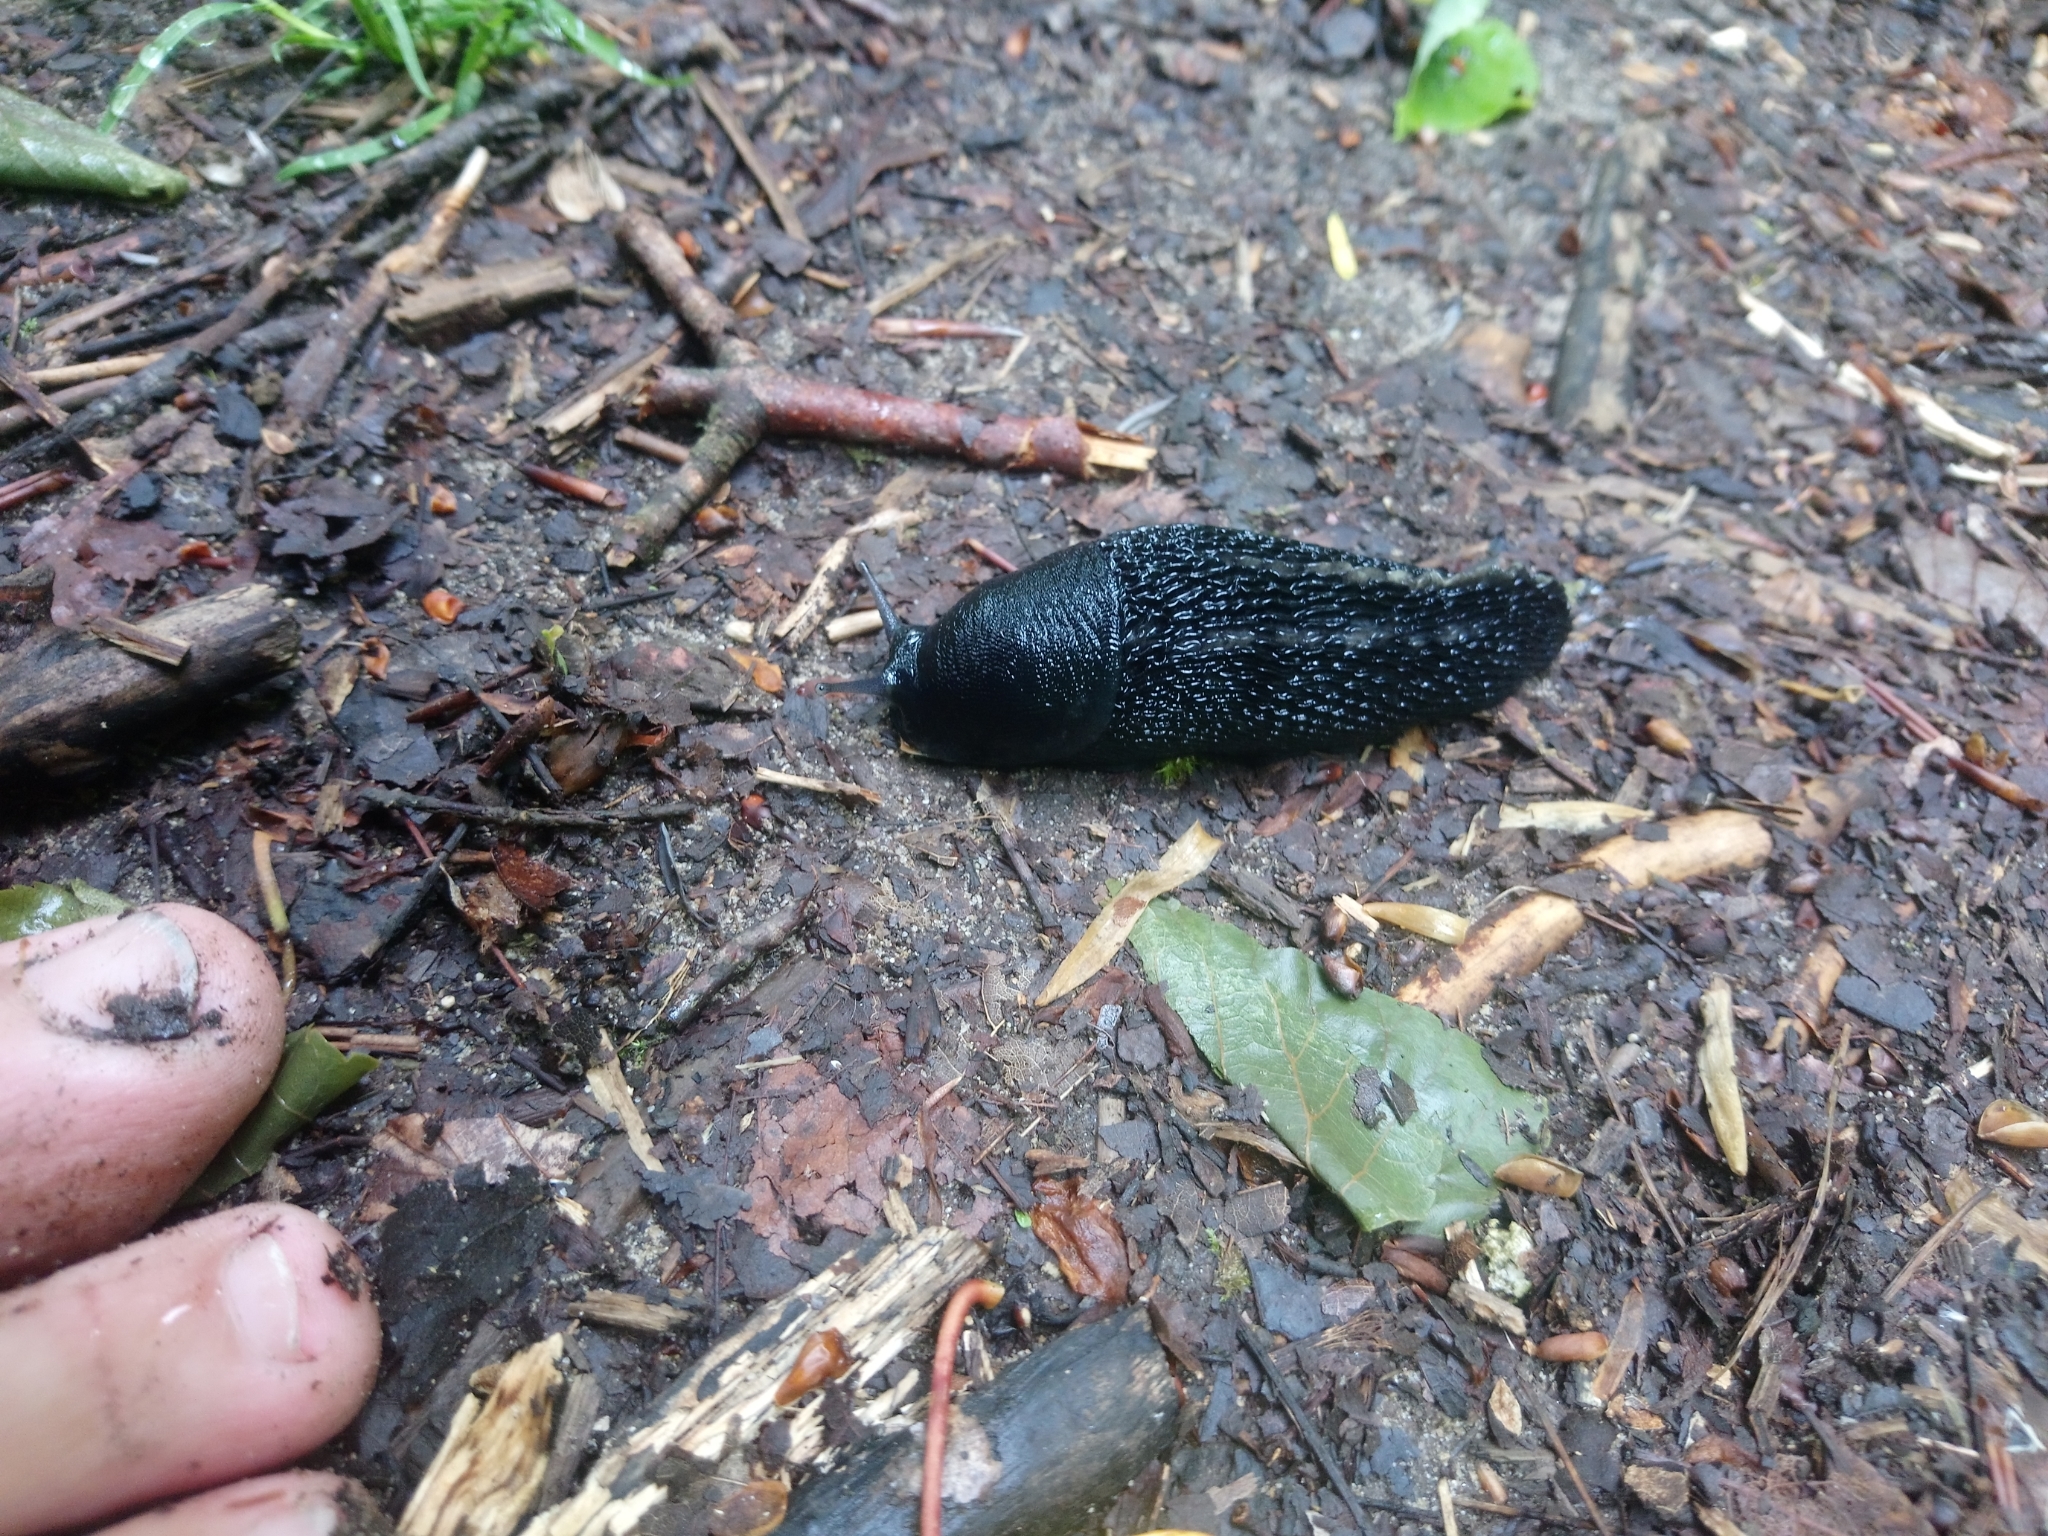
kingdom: Animalia
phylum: Mollusca
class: Gastropoda
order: Stylommatophora
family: Limacidae
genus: Limax
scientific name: Limax cinereoniger
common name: Ash-black slug
